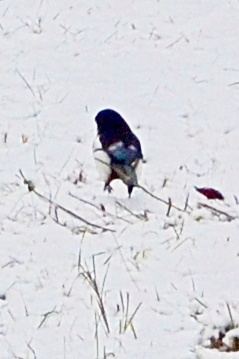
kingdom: Animalia
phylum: Chordata
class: Aves
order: Passeriformes
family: Corvidae
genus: Pica
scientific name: Pica pica
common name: Eurasian magpie
